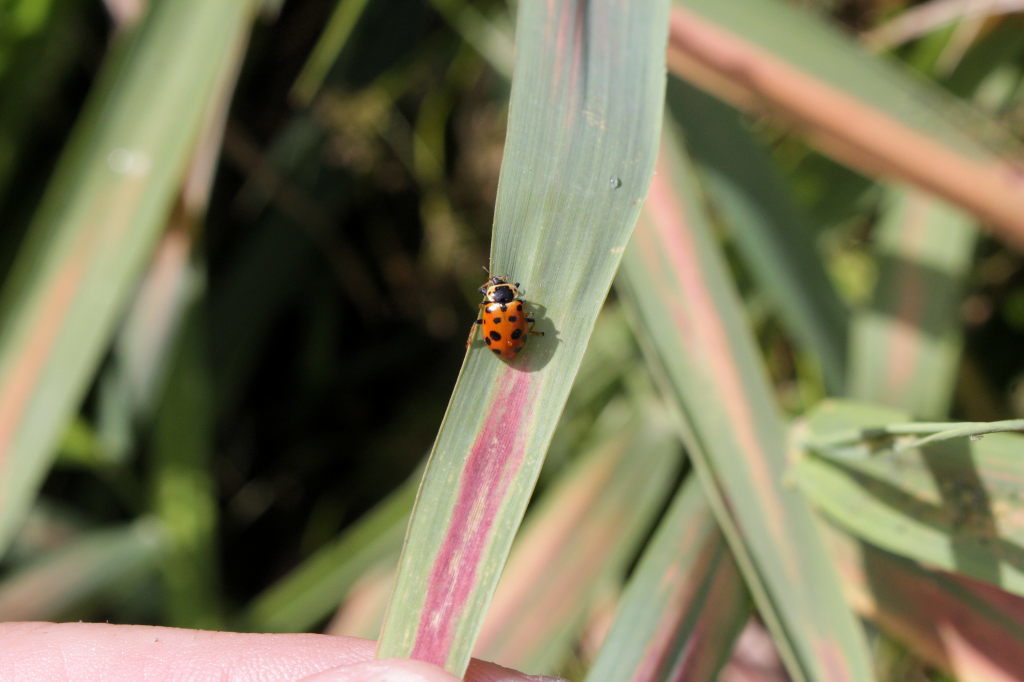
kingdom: Animalia
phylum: Arthropoda
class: Insecta
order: Coleoptera
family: Coccinellidae
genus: Hippodamia
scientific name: Hippodamia tredecimpunctata
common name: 13-spot ladybird
